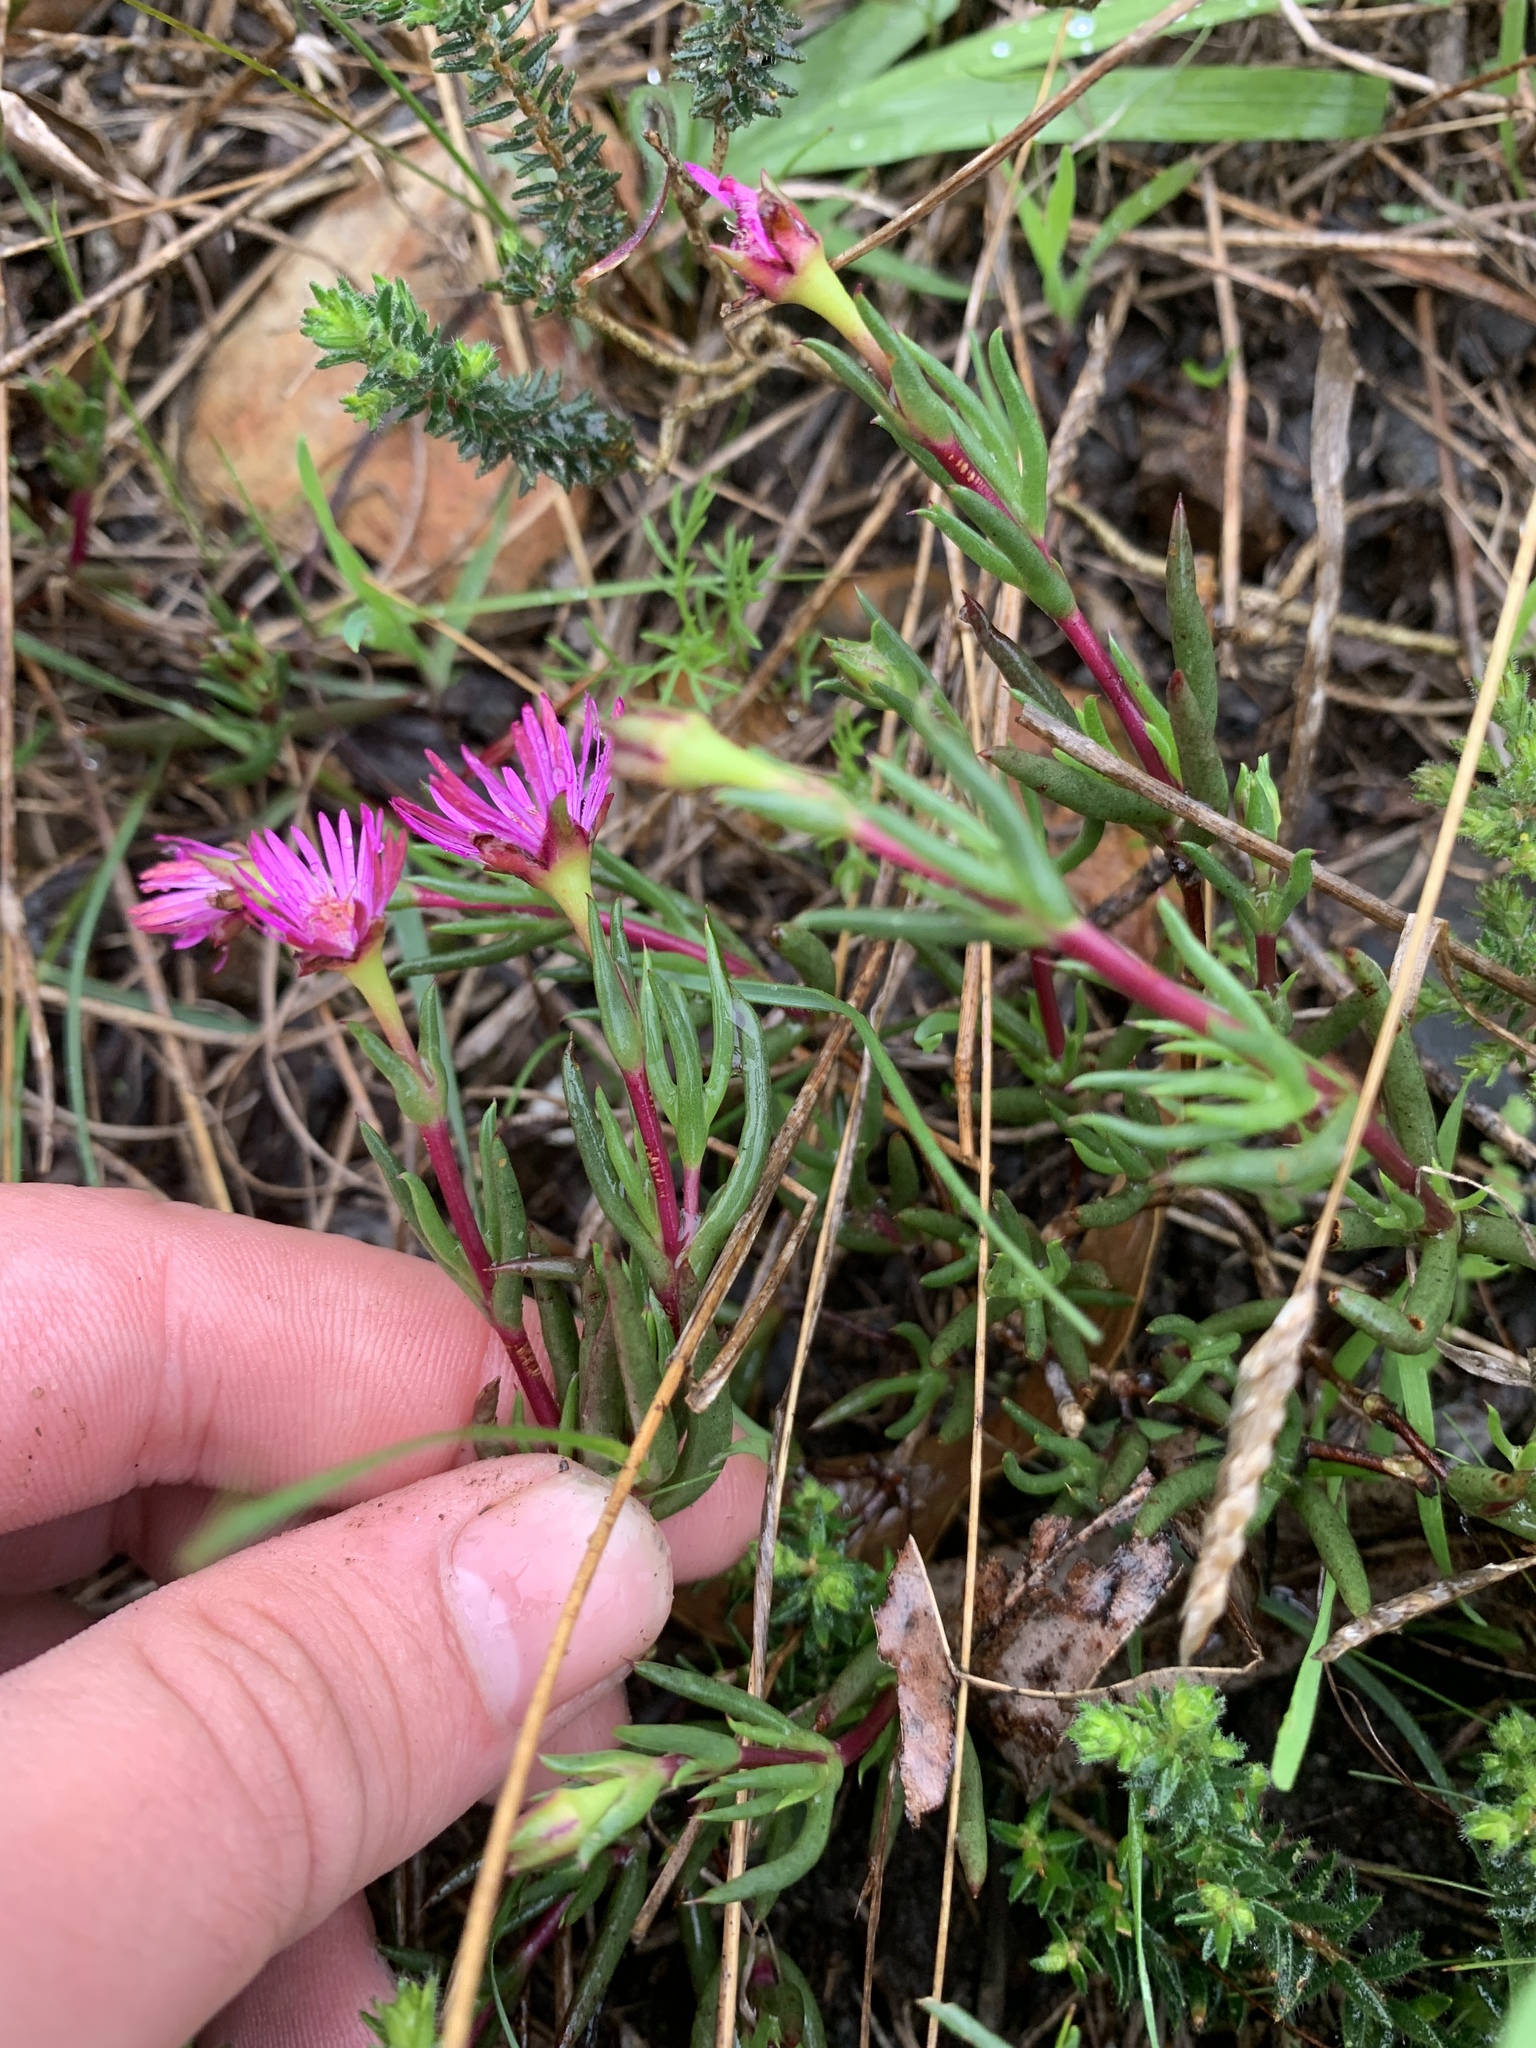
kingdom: Plantae
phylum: Tracheophyta
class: Magnoliopsida
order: Caryophyllales
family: Aizoaceae
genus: Lampranthus
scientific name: Lampranthus aduncus
